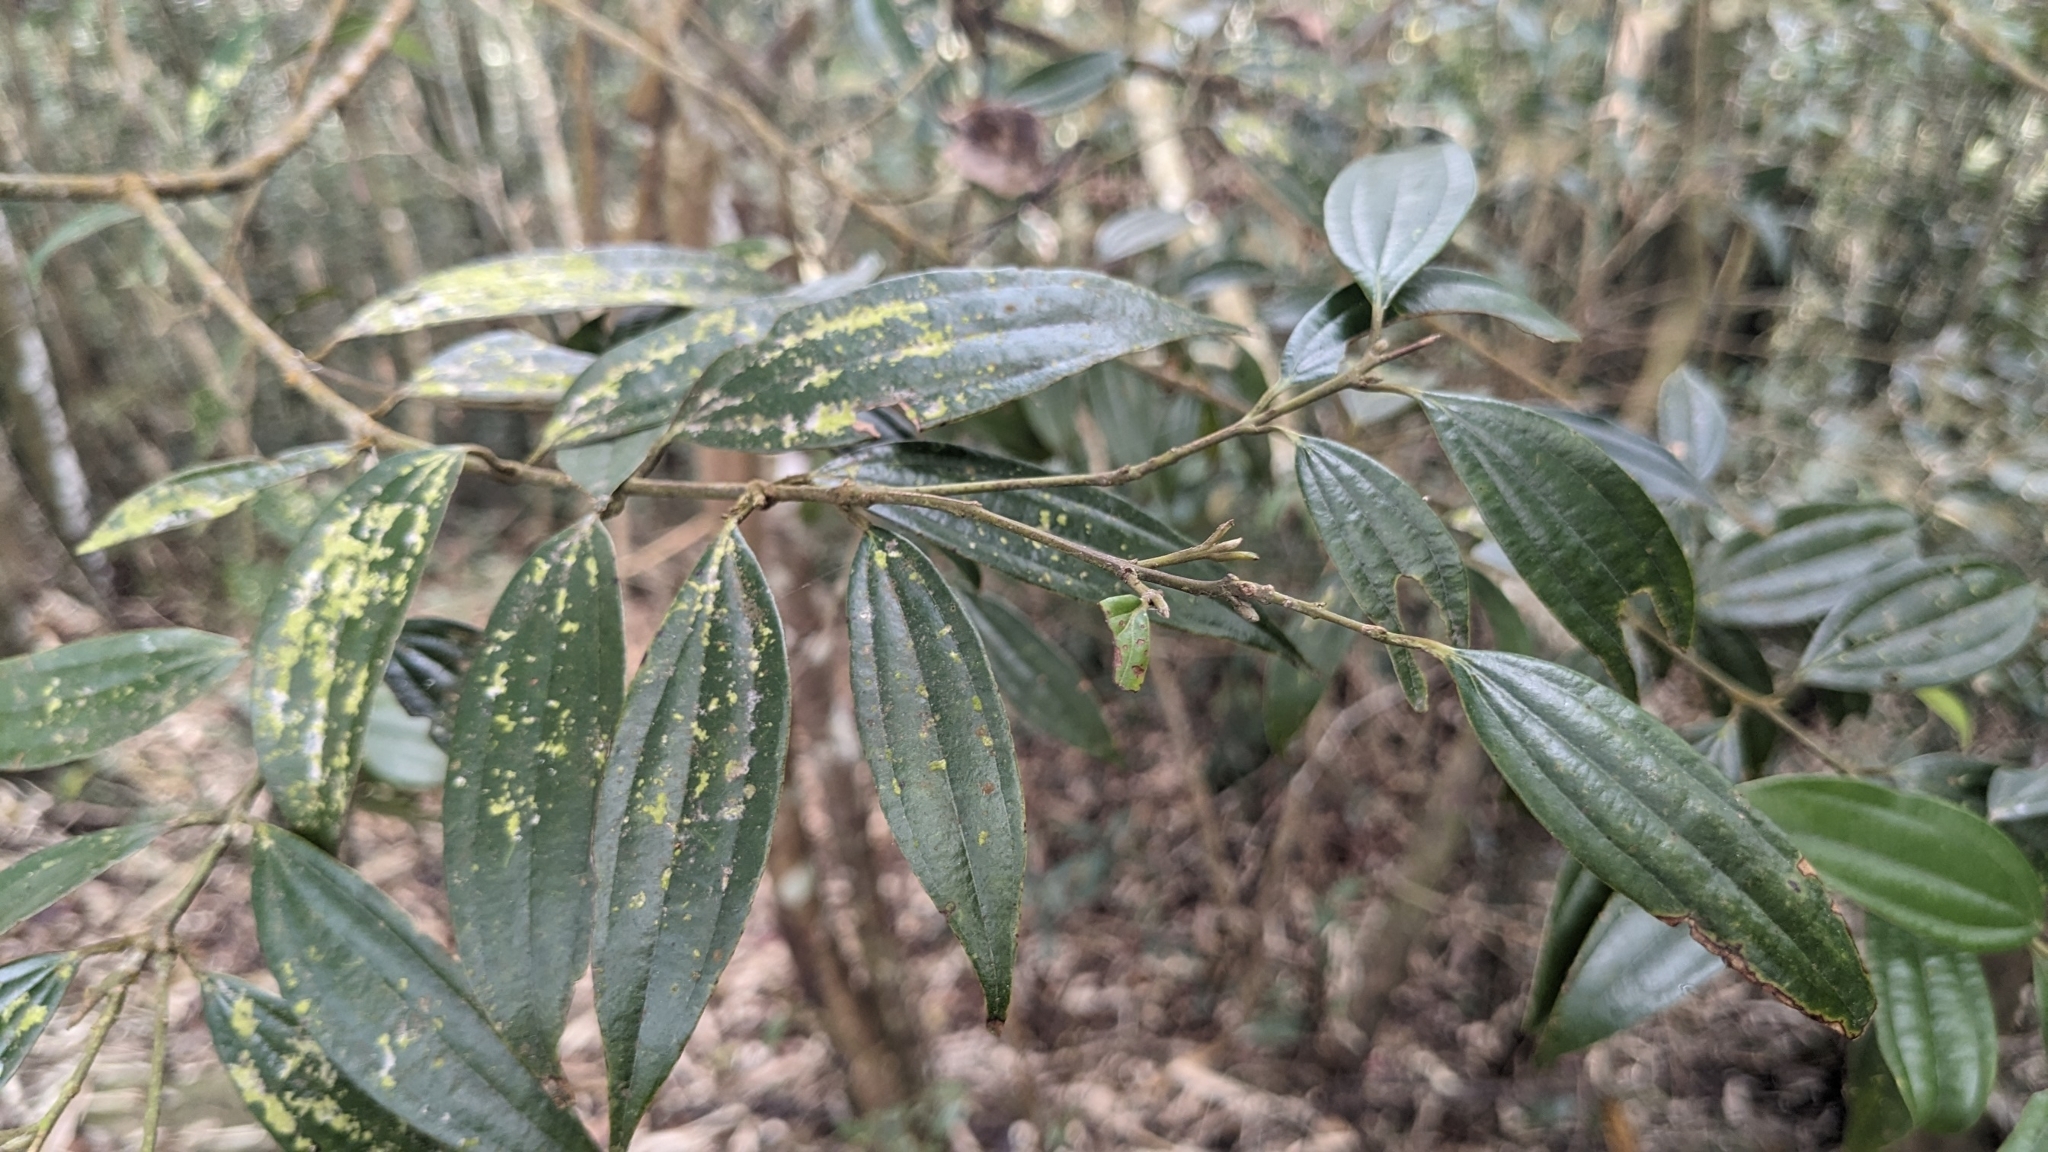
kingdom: Plantae
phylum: Tracheophyta
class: Magnoliopsida
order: Laurales
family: Lauraceae
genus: Cinnamomum
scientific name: Cinnamomum subavenium
